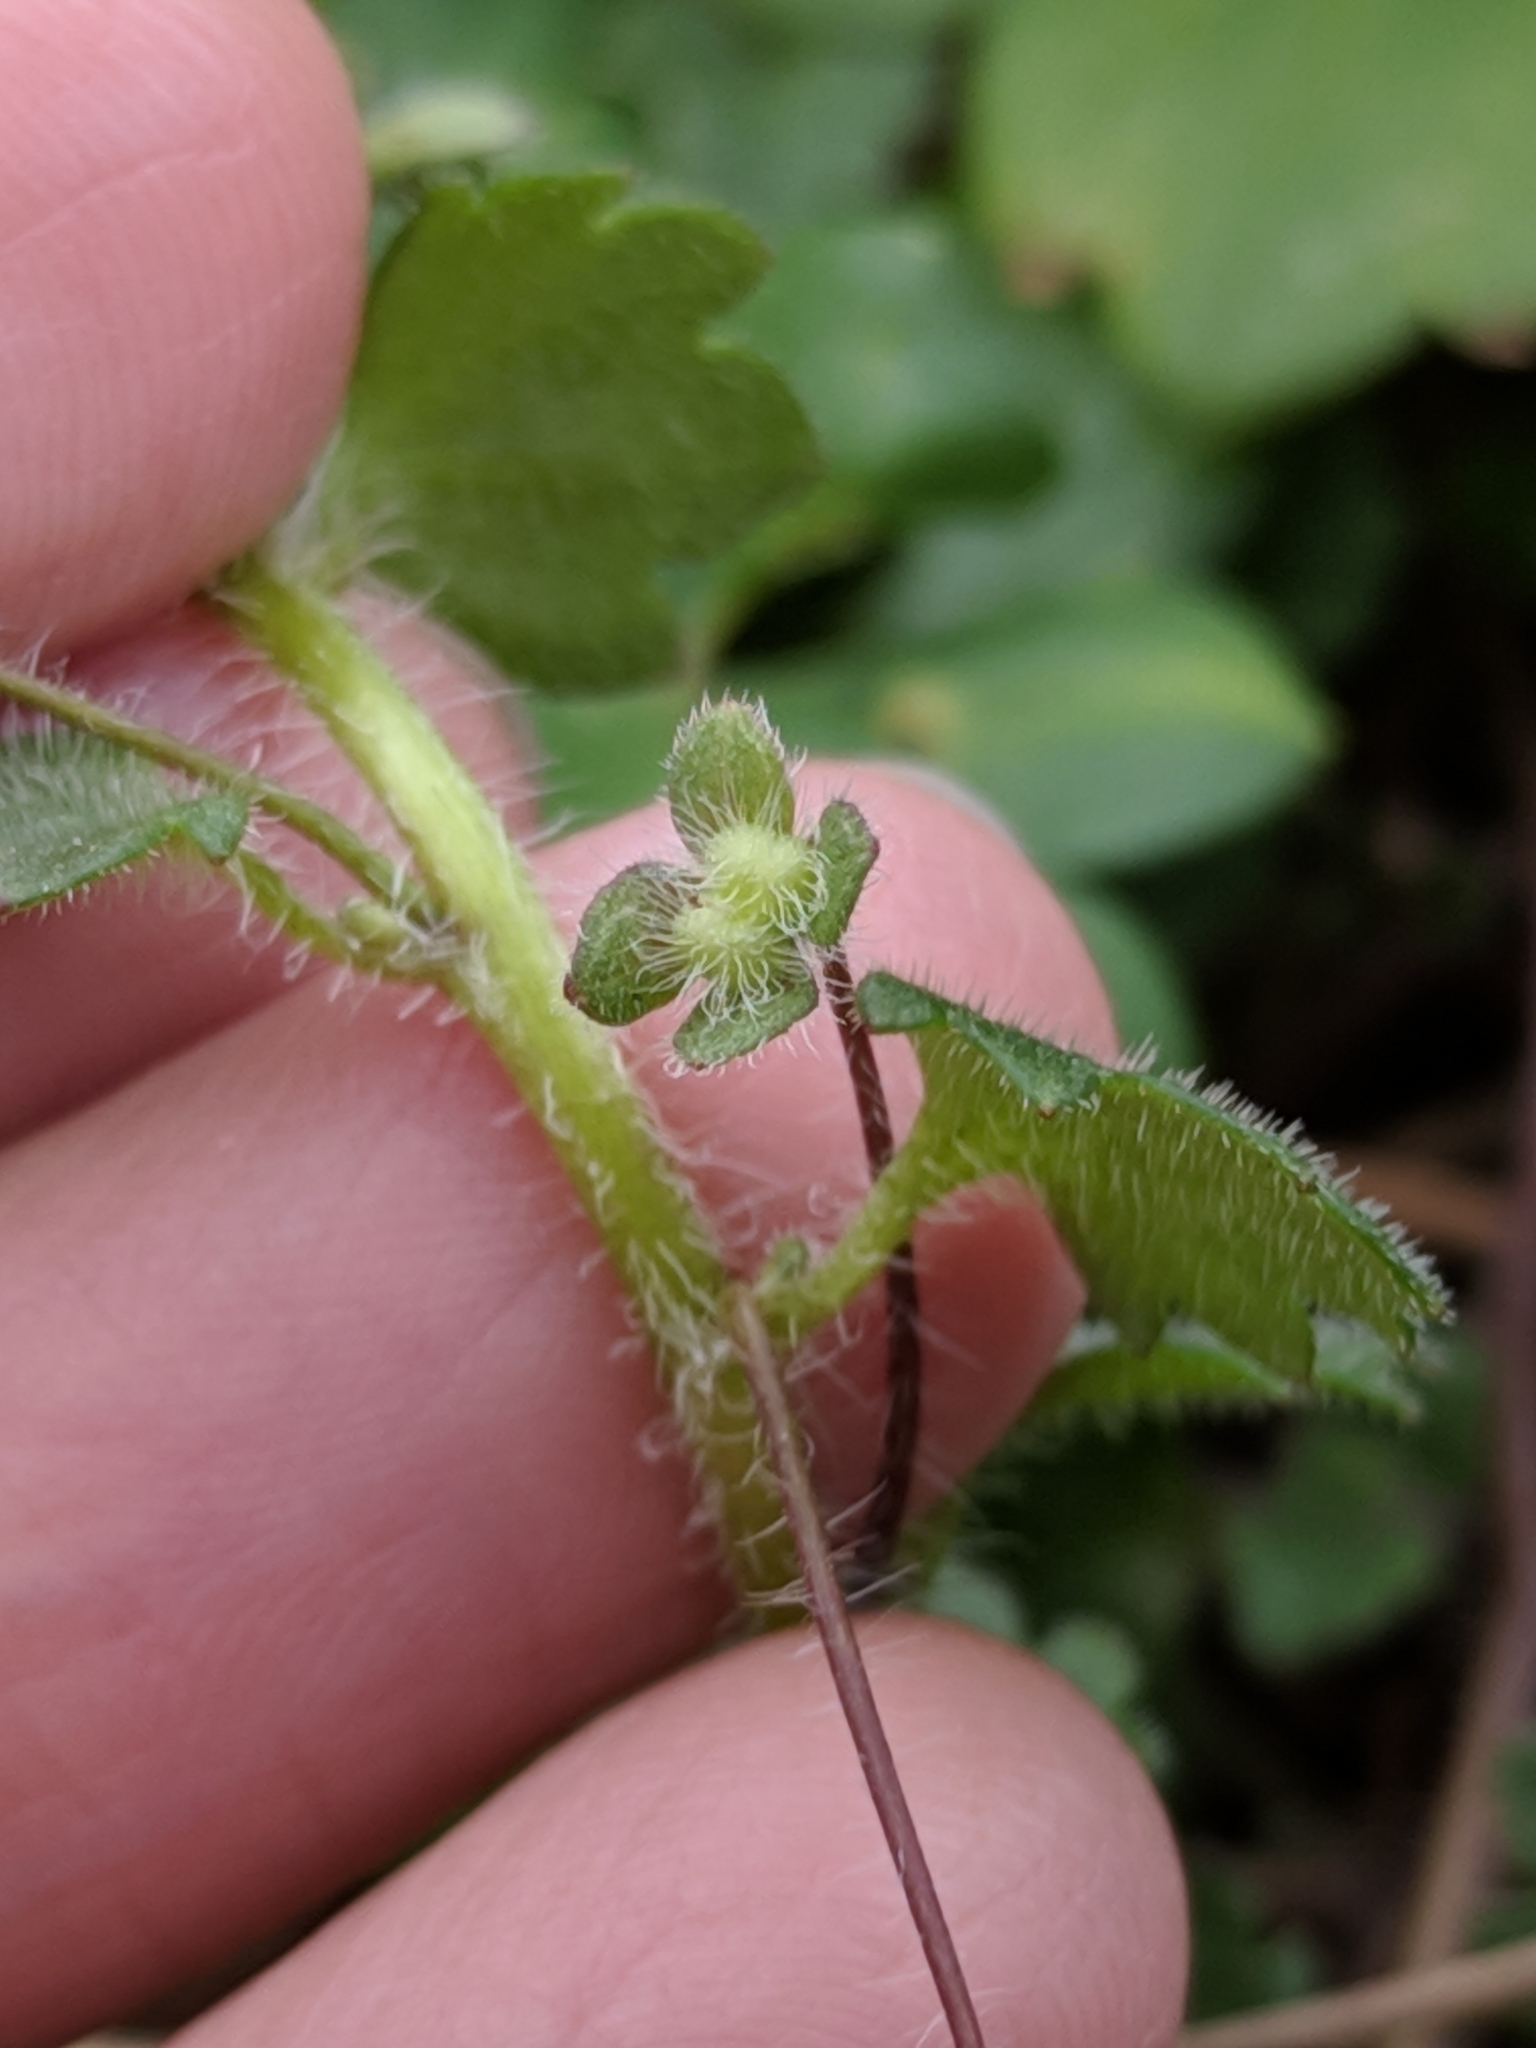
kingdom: Plantae
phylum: Tracheophyta
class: Magnoliopsida
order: Lamiales
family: Plantaginaceae
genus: Veronica
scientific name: Veronica cymbalaria
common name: Pale speedwell
